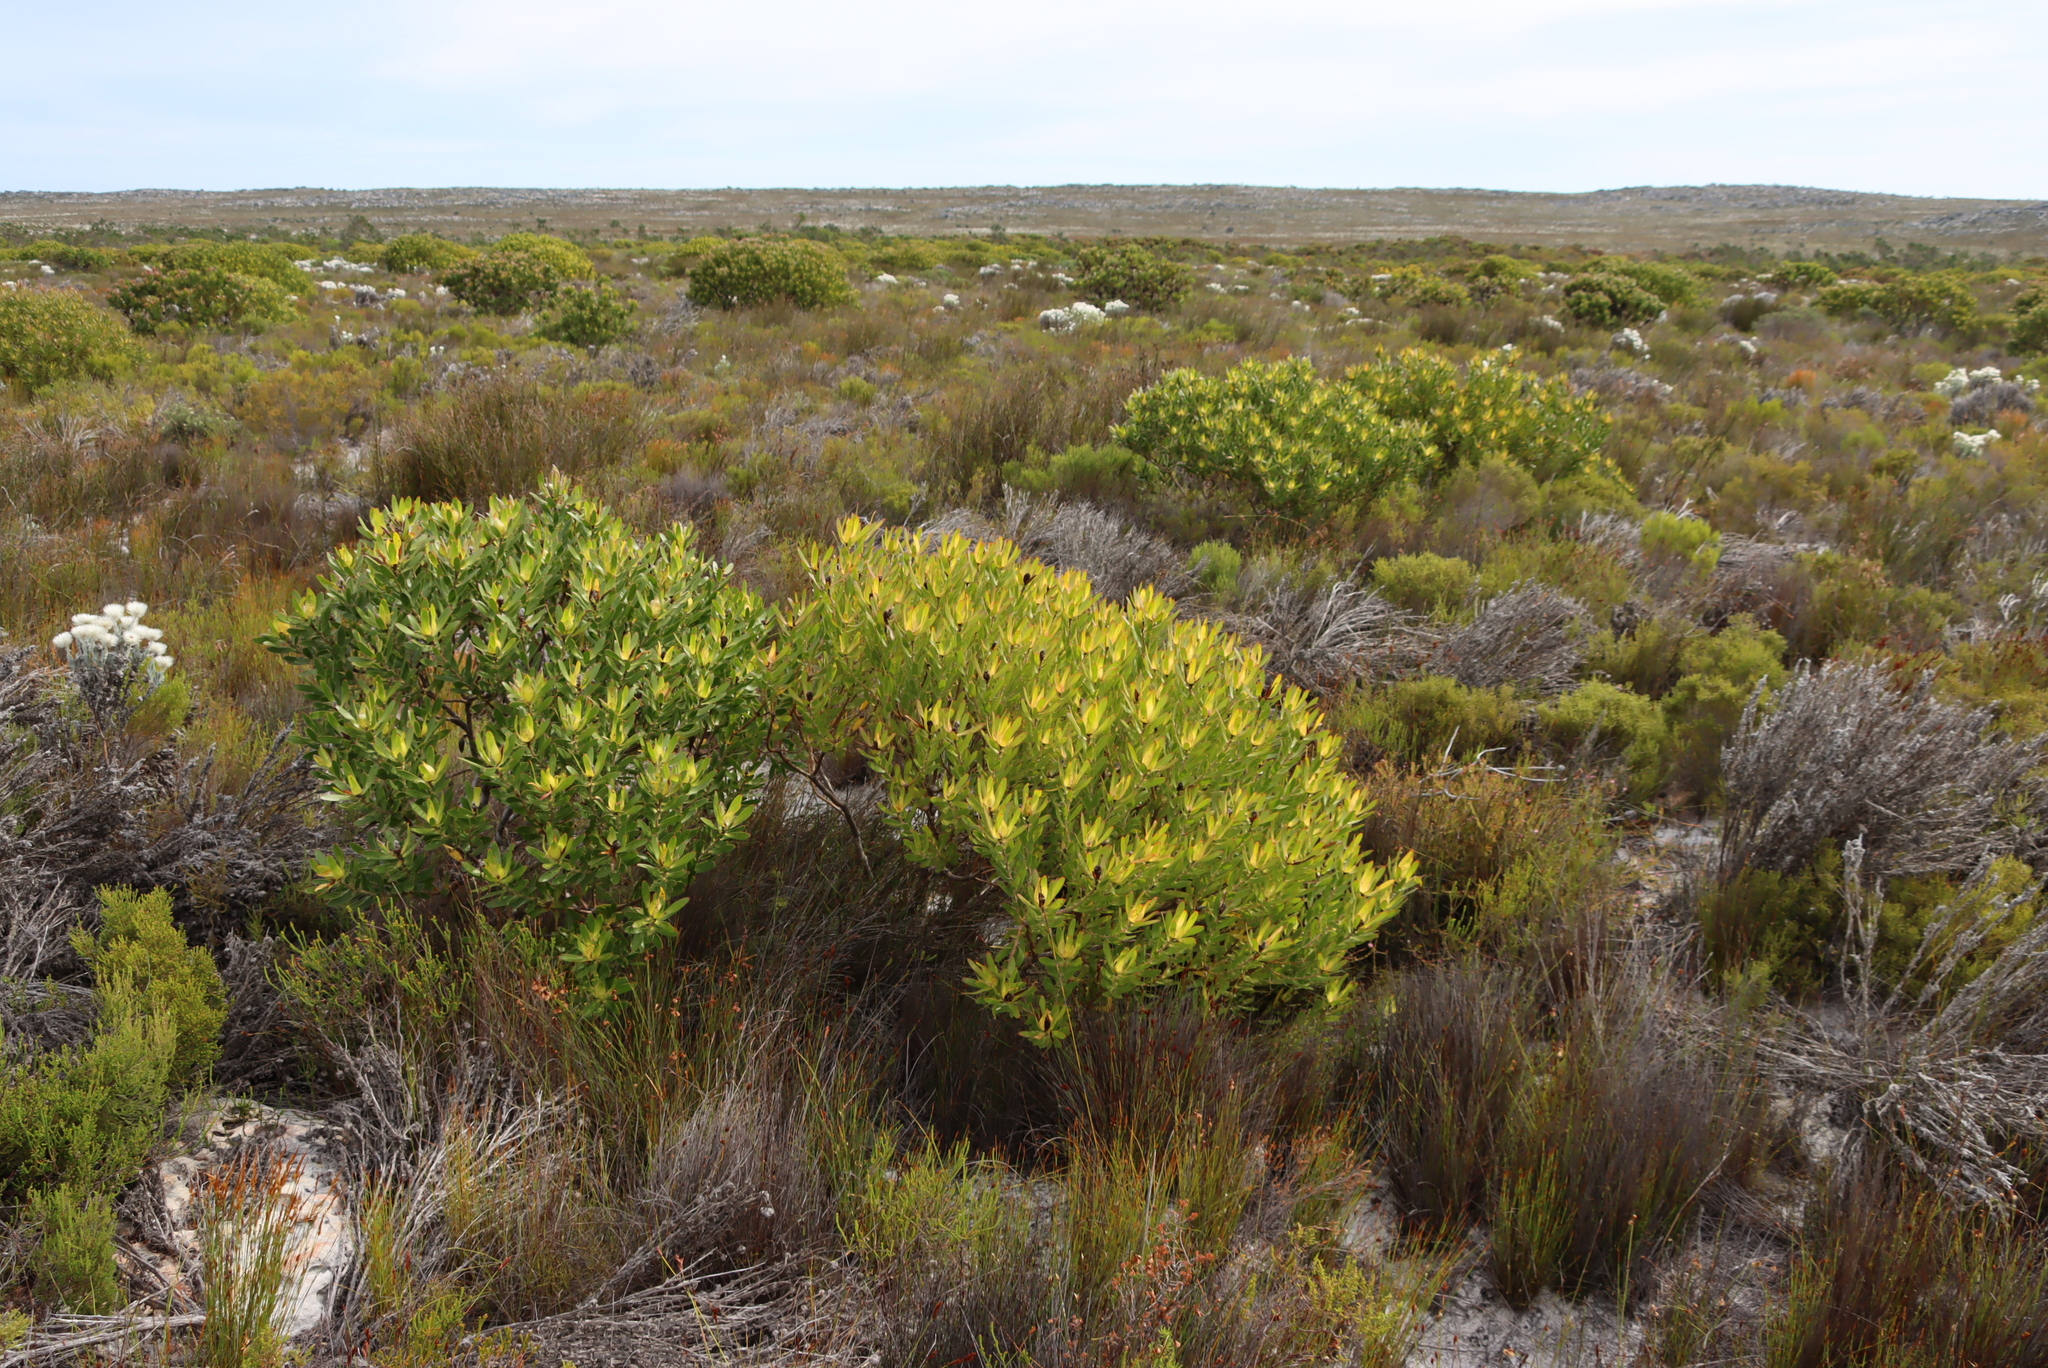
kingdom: Plantae
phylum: Tracheophyta
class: Magnoliopsida
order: Proteales
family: Proteaceae
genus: Leucadendron
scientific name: Leucadendron laureolum
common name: Golden sunshinebush
